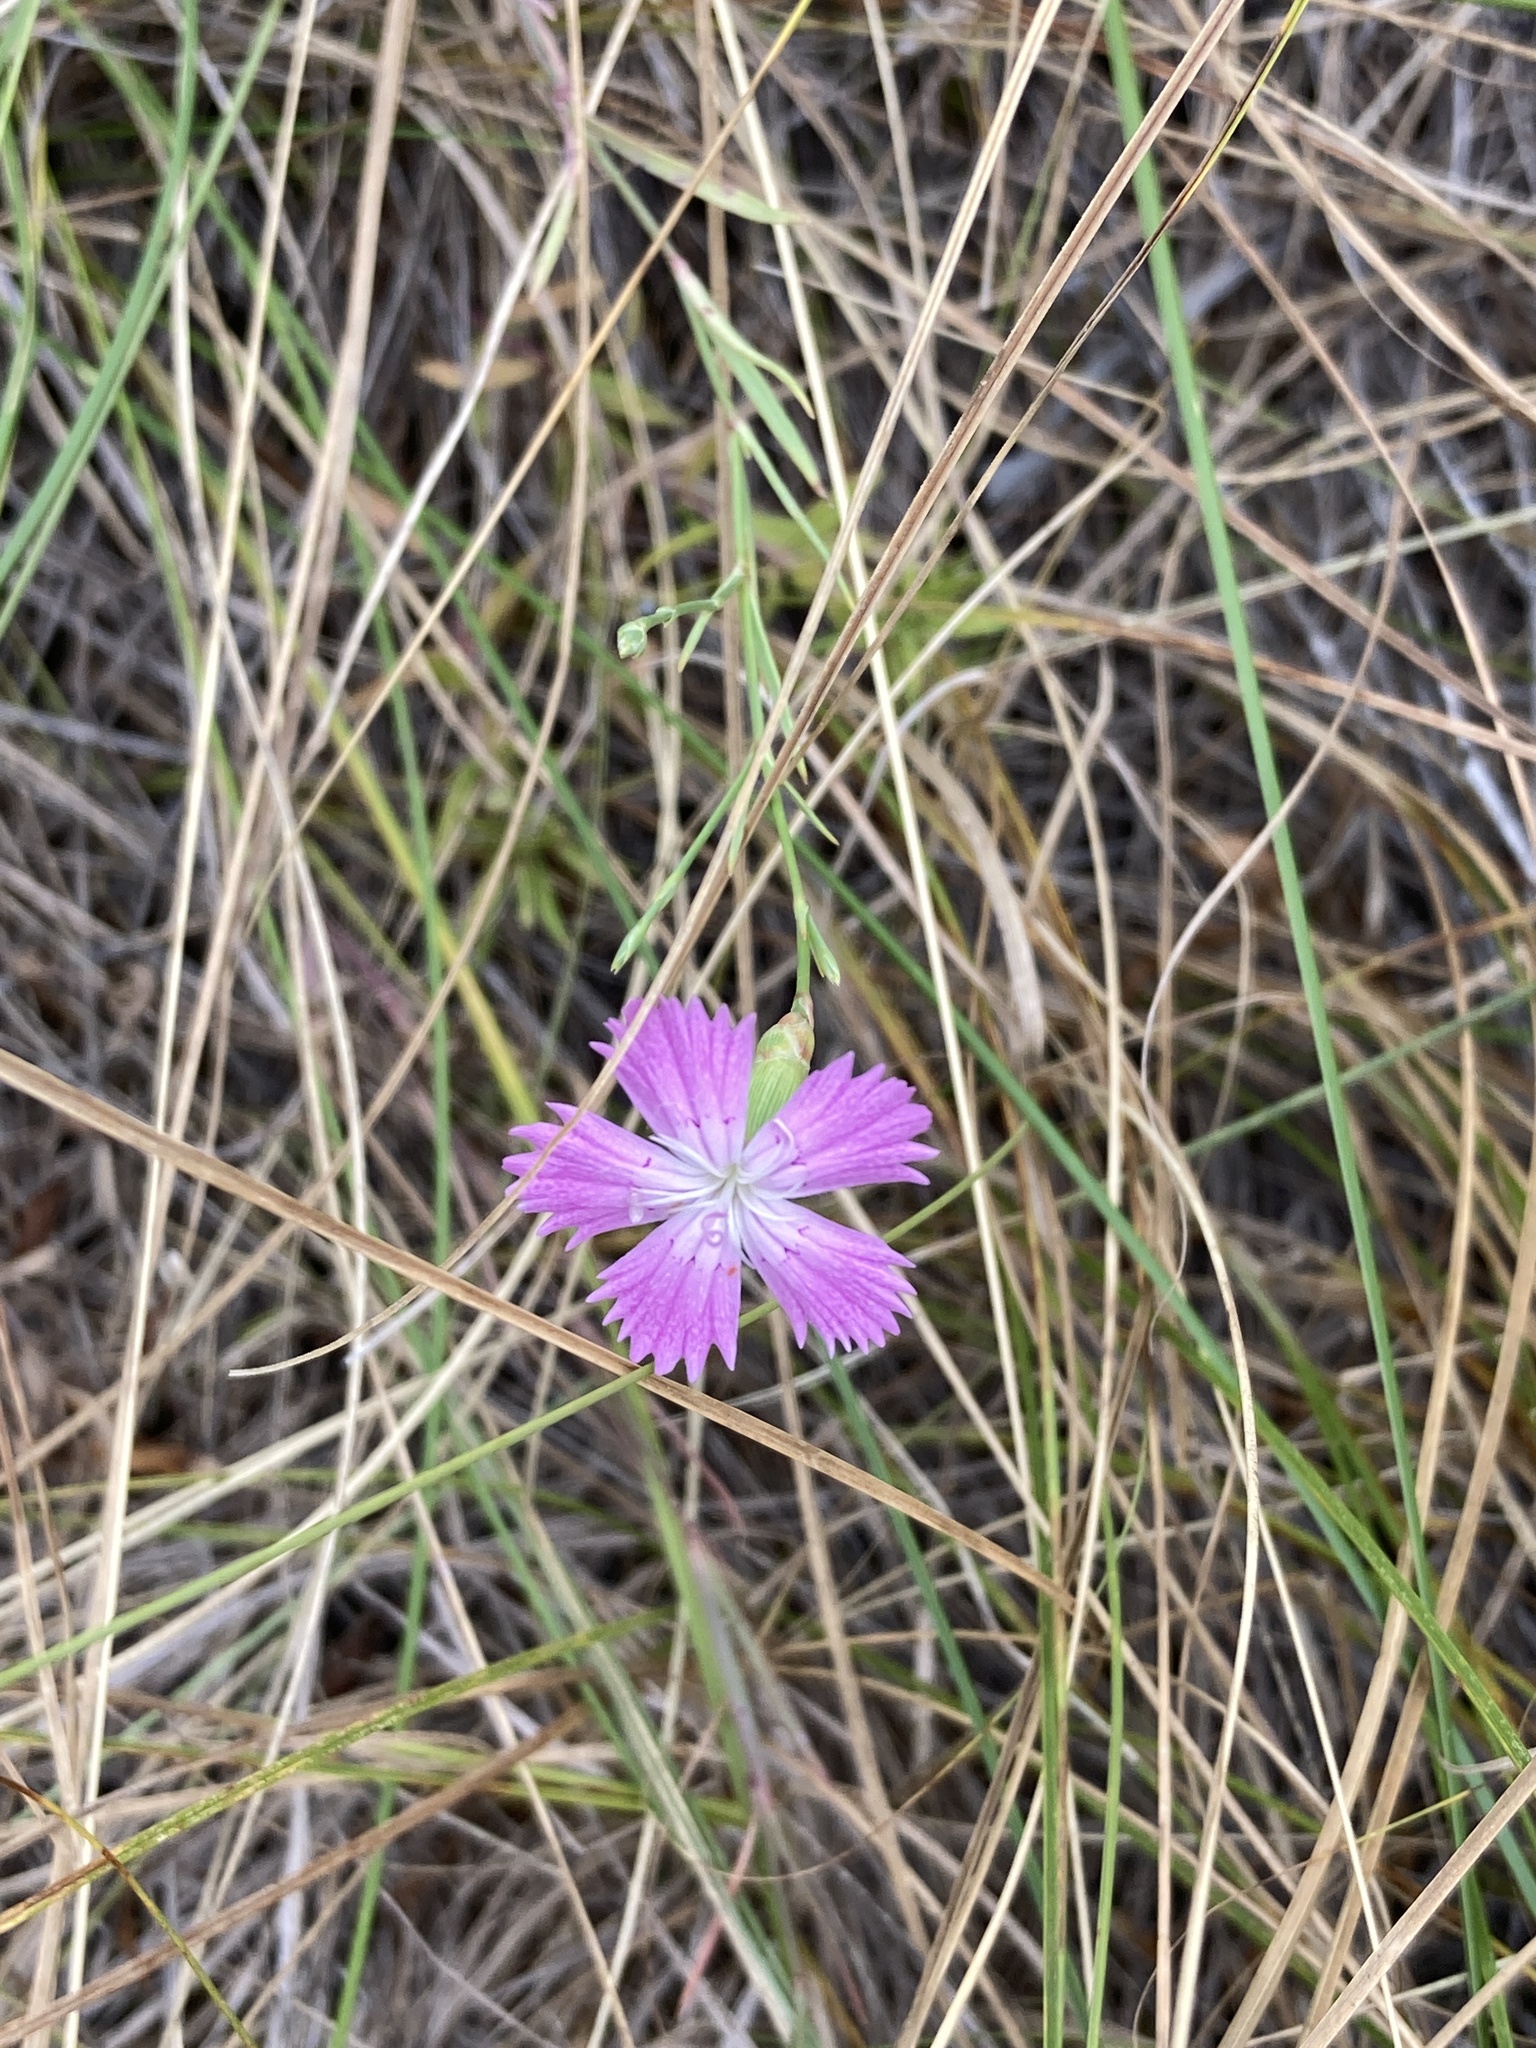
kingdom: Plantae
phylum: Tracheophyta
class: Magnoliopsida
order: Caryophyllales
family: Caryophyllaceae
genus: Dianthus
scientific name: Dianthus campestris
